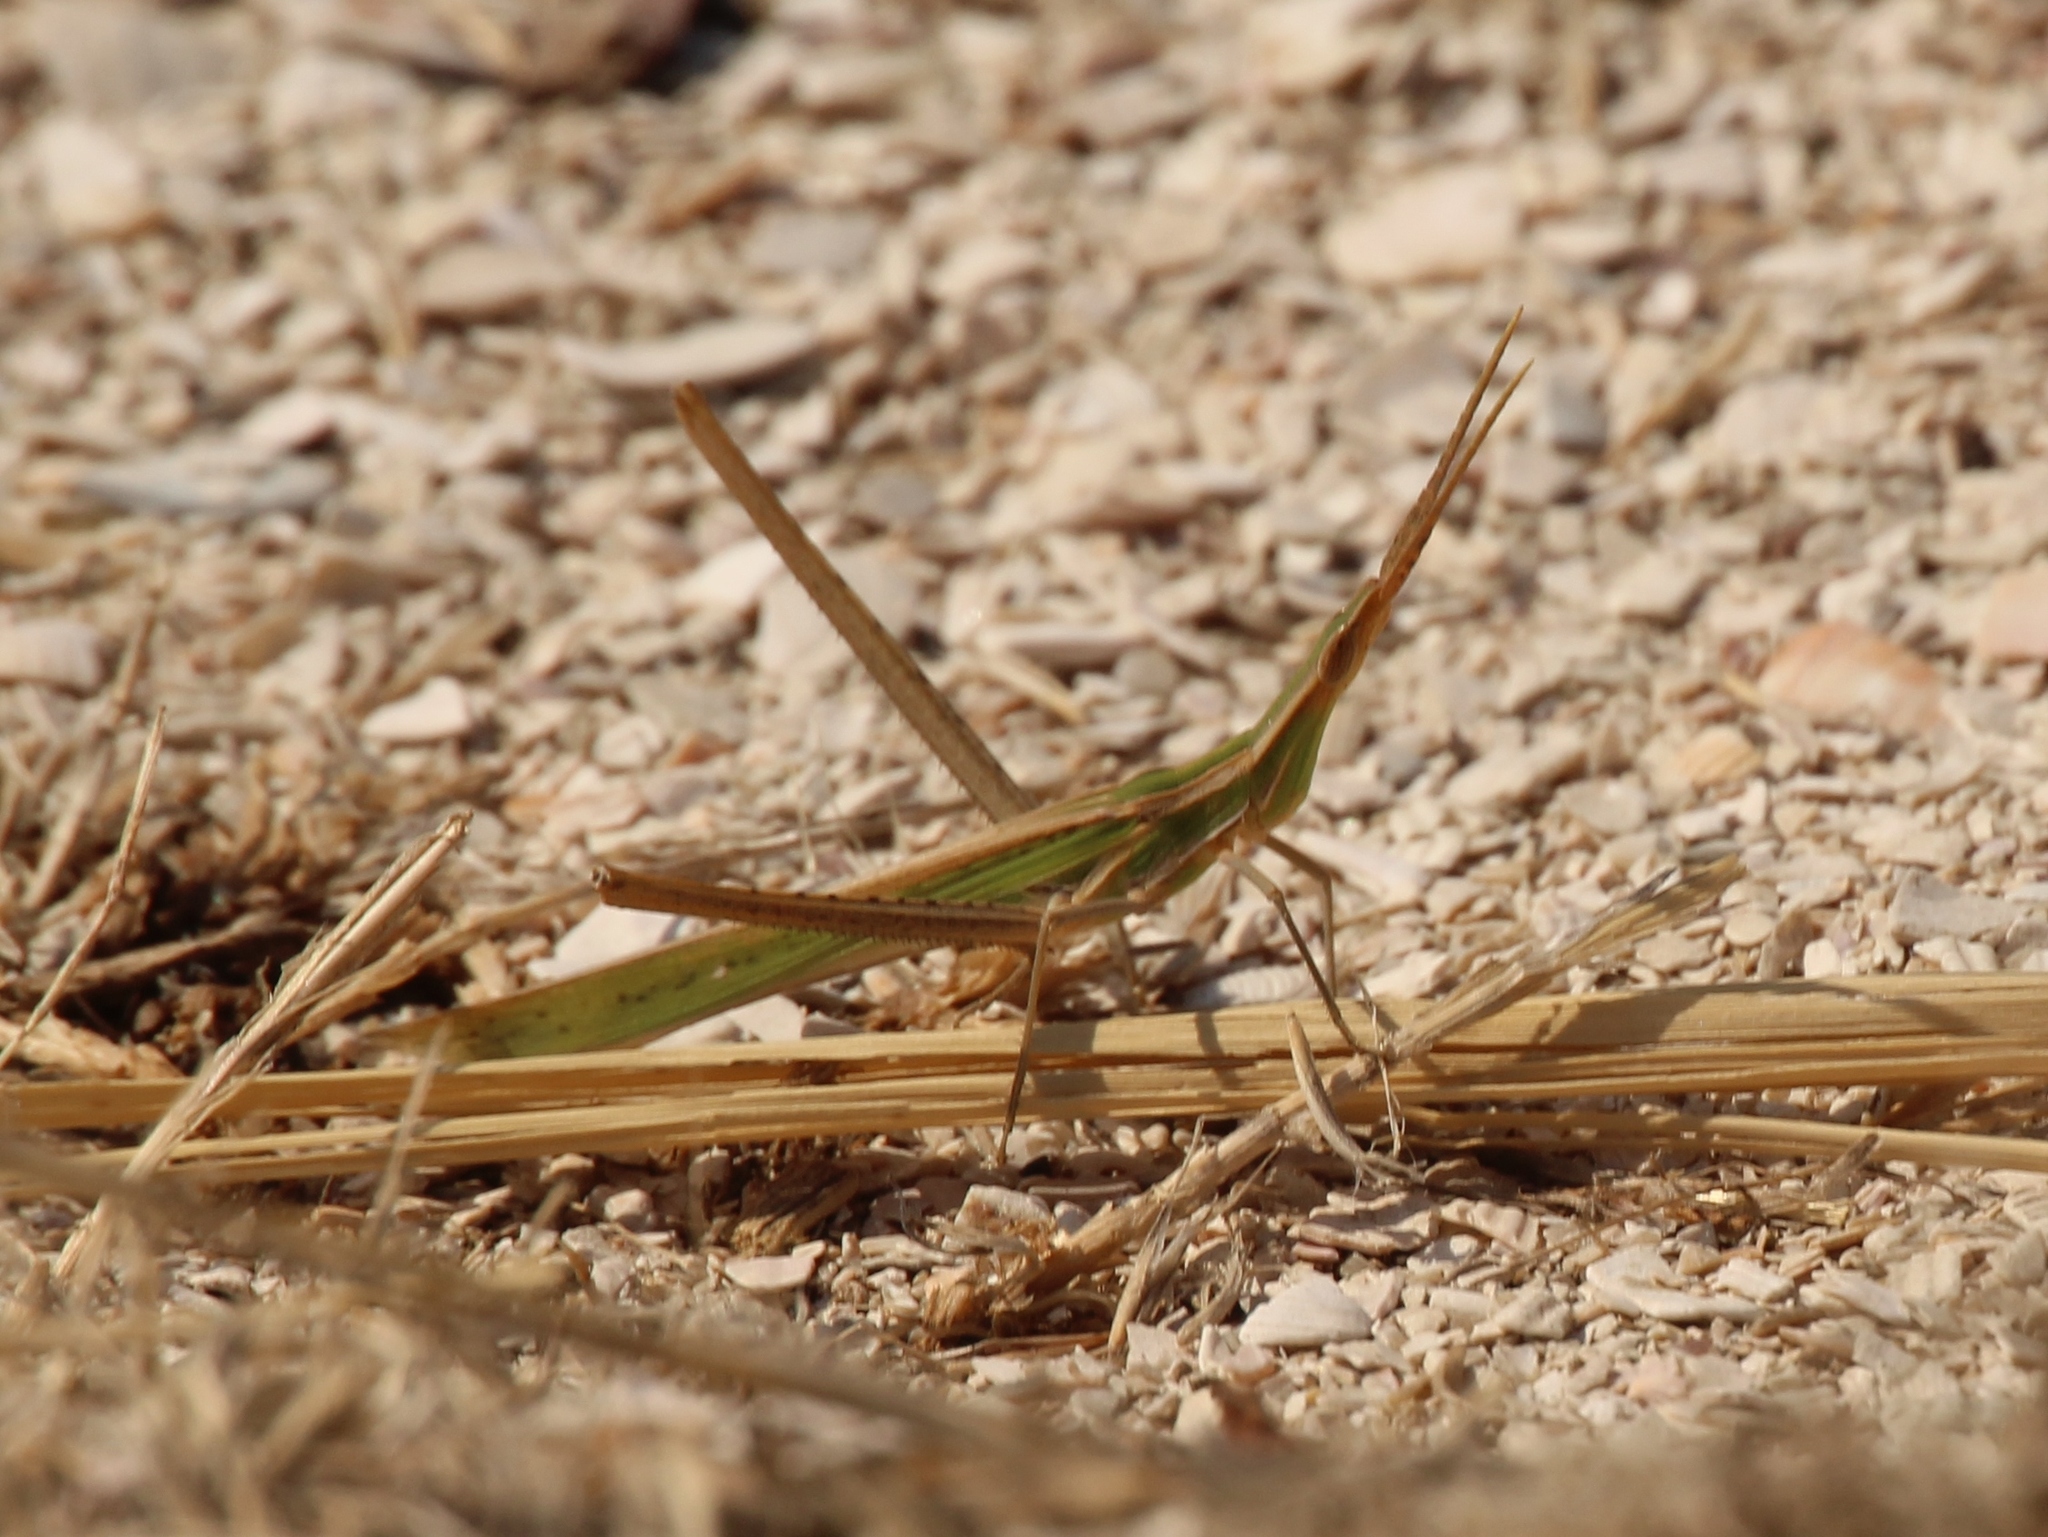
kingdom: Animalia
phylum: Arthropoda
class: Insecta
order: Orthoptera
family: Acrididae
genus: Acrida
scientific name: Acrida ungarica
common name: Common cone-headed grasshopper
